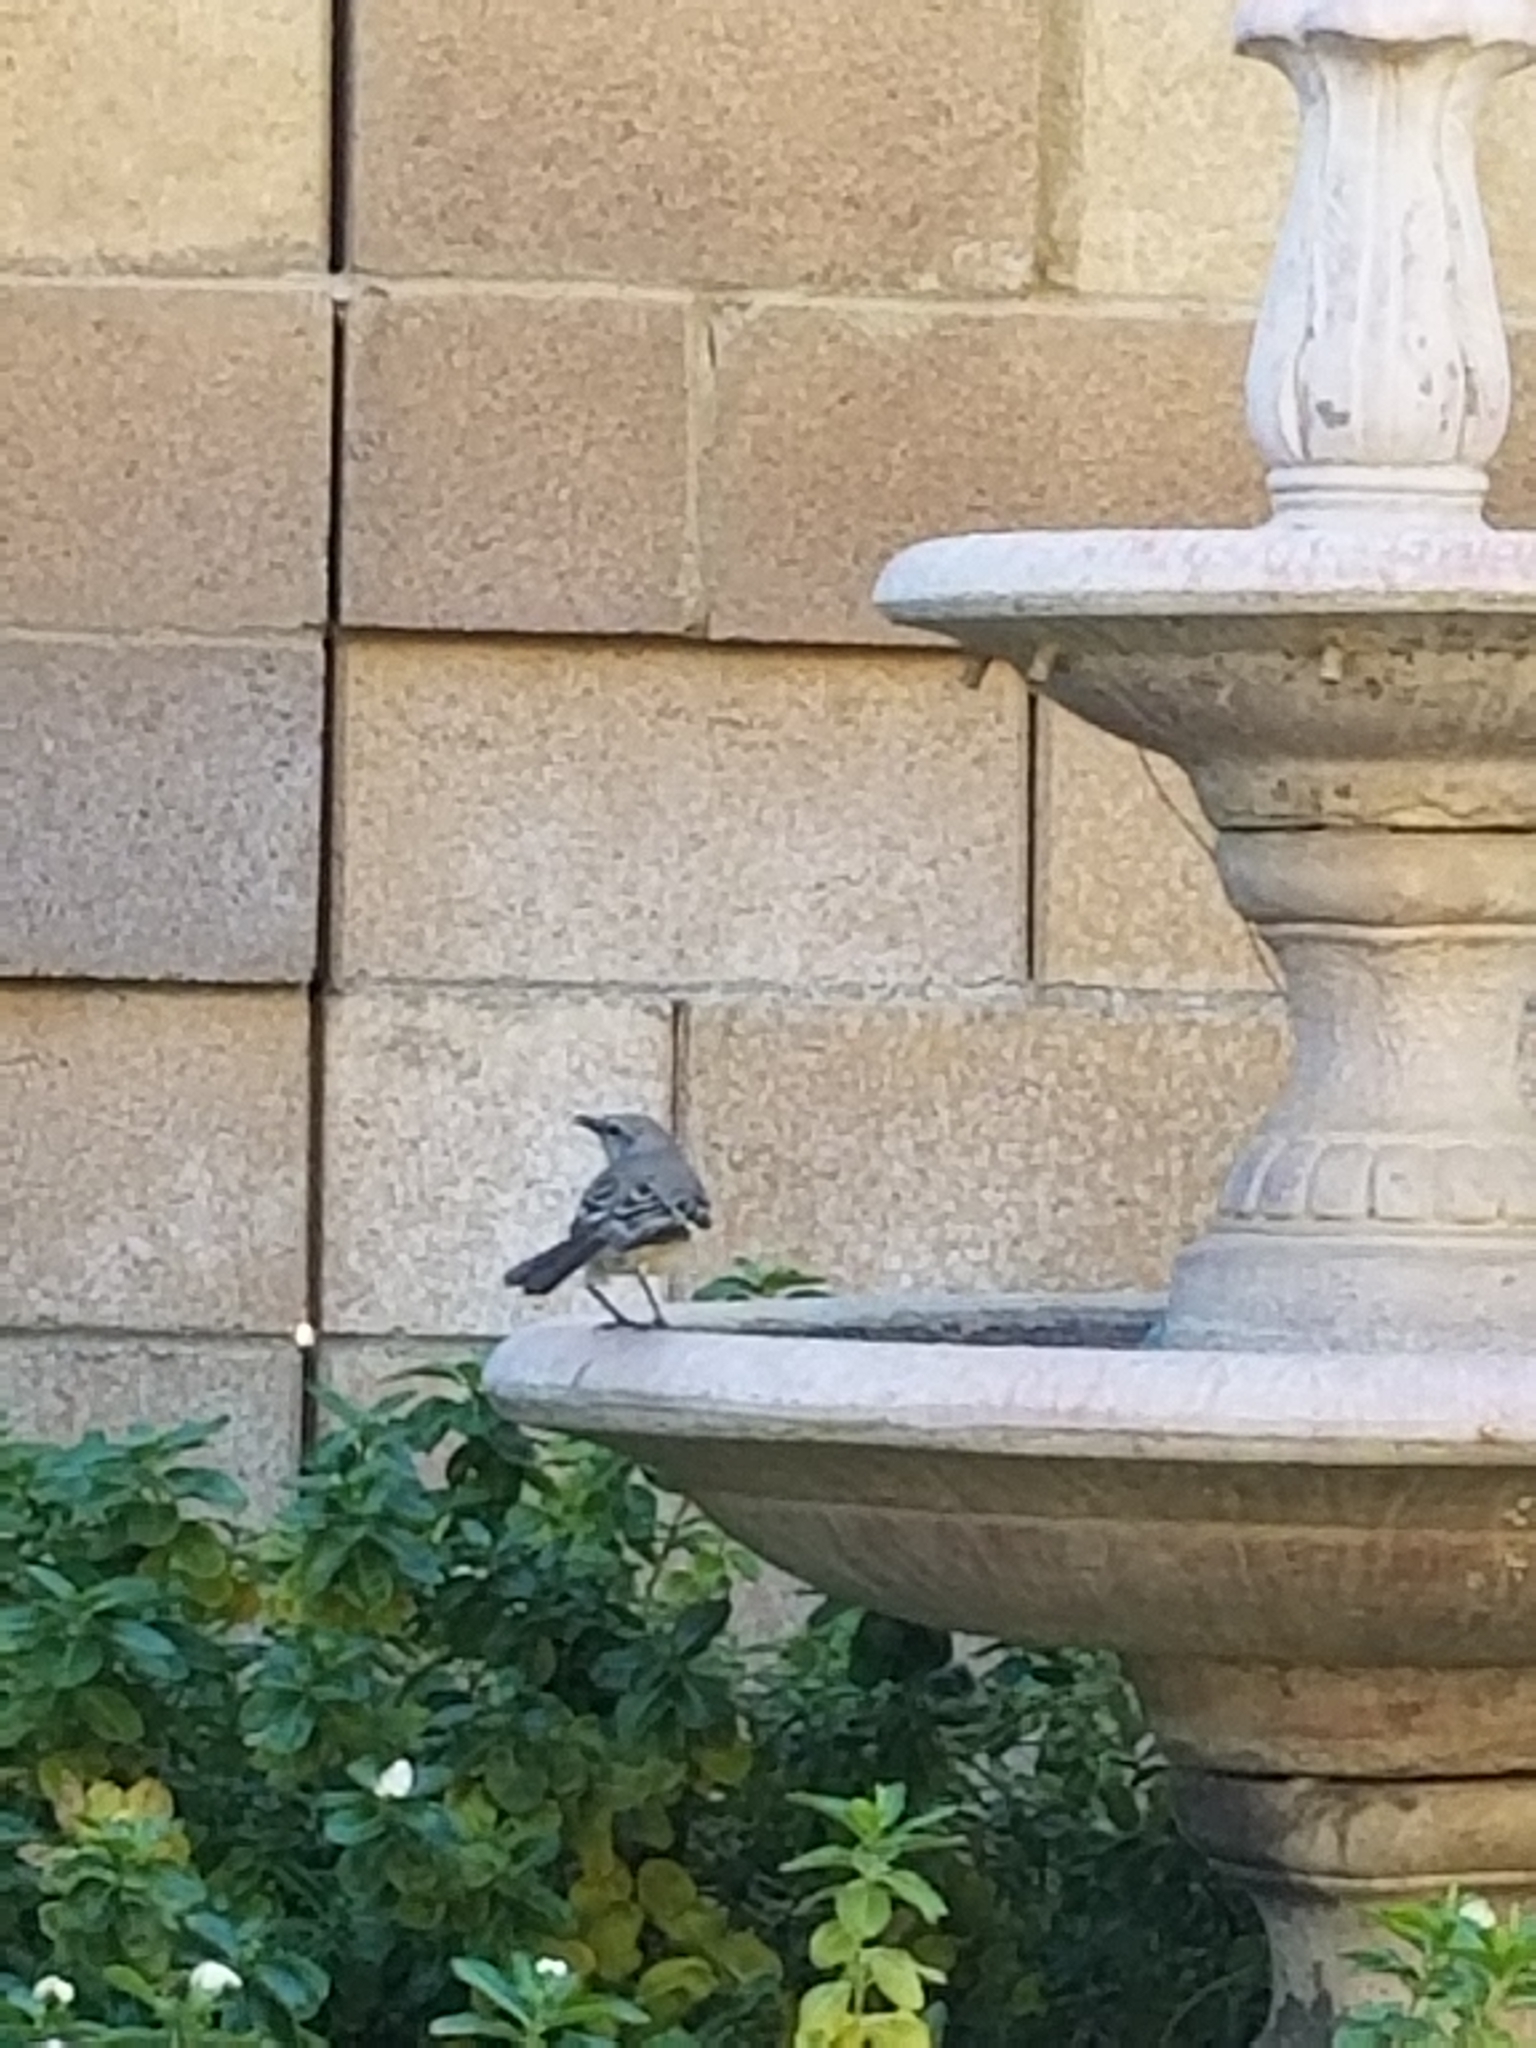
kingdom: Animalia
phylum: Chordata
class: Aves
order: Passeriformes
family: Mimidae
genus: Mimus
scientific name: Mimus polyglottos
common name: Northern mockingbird
